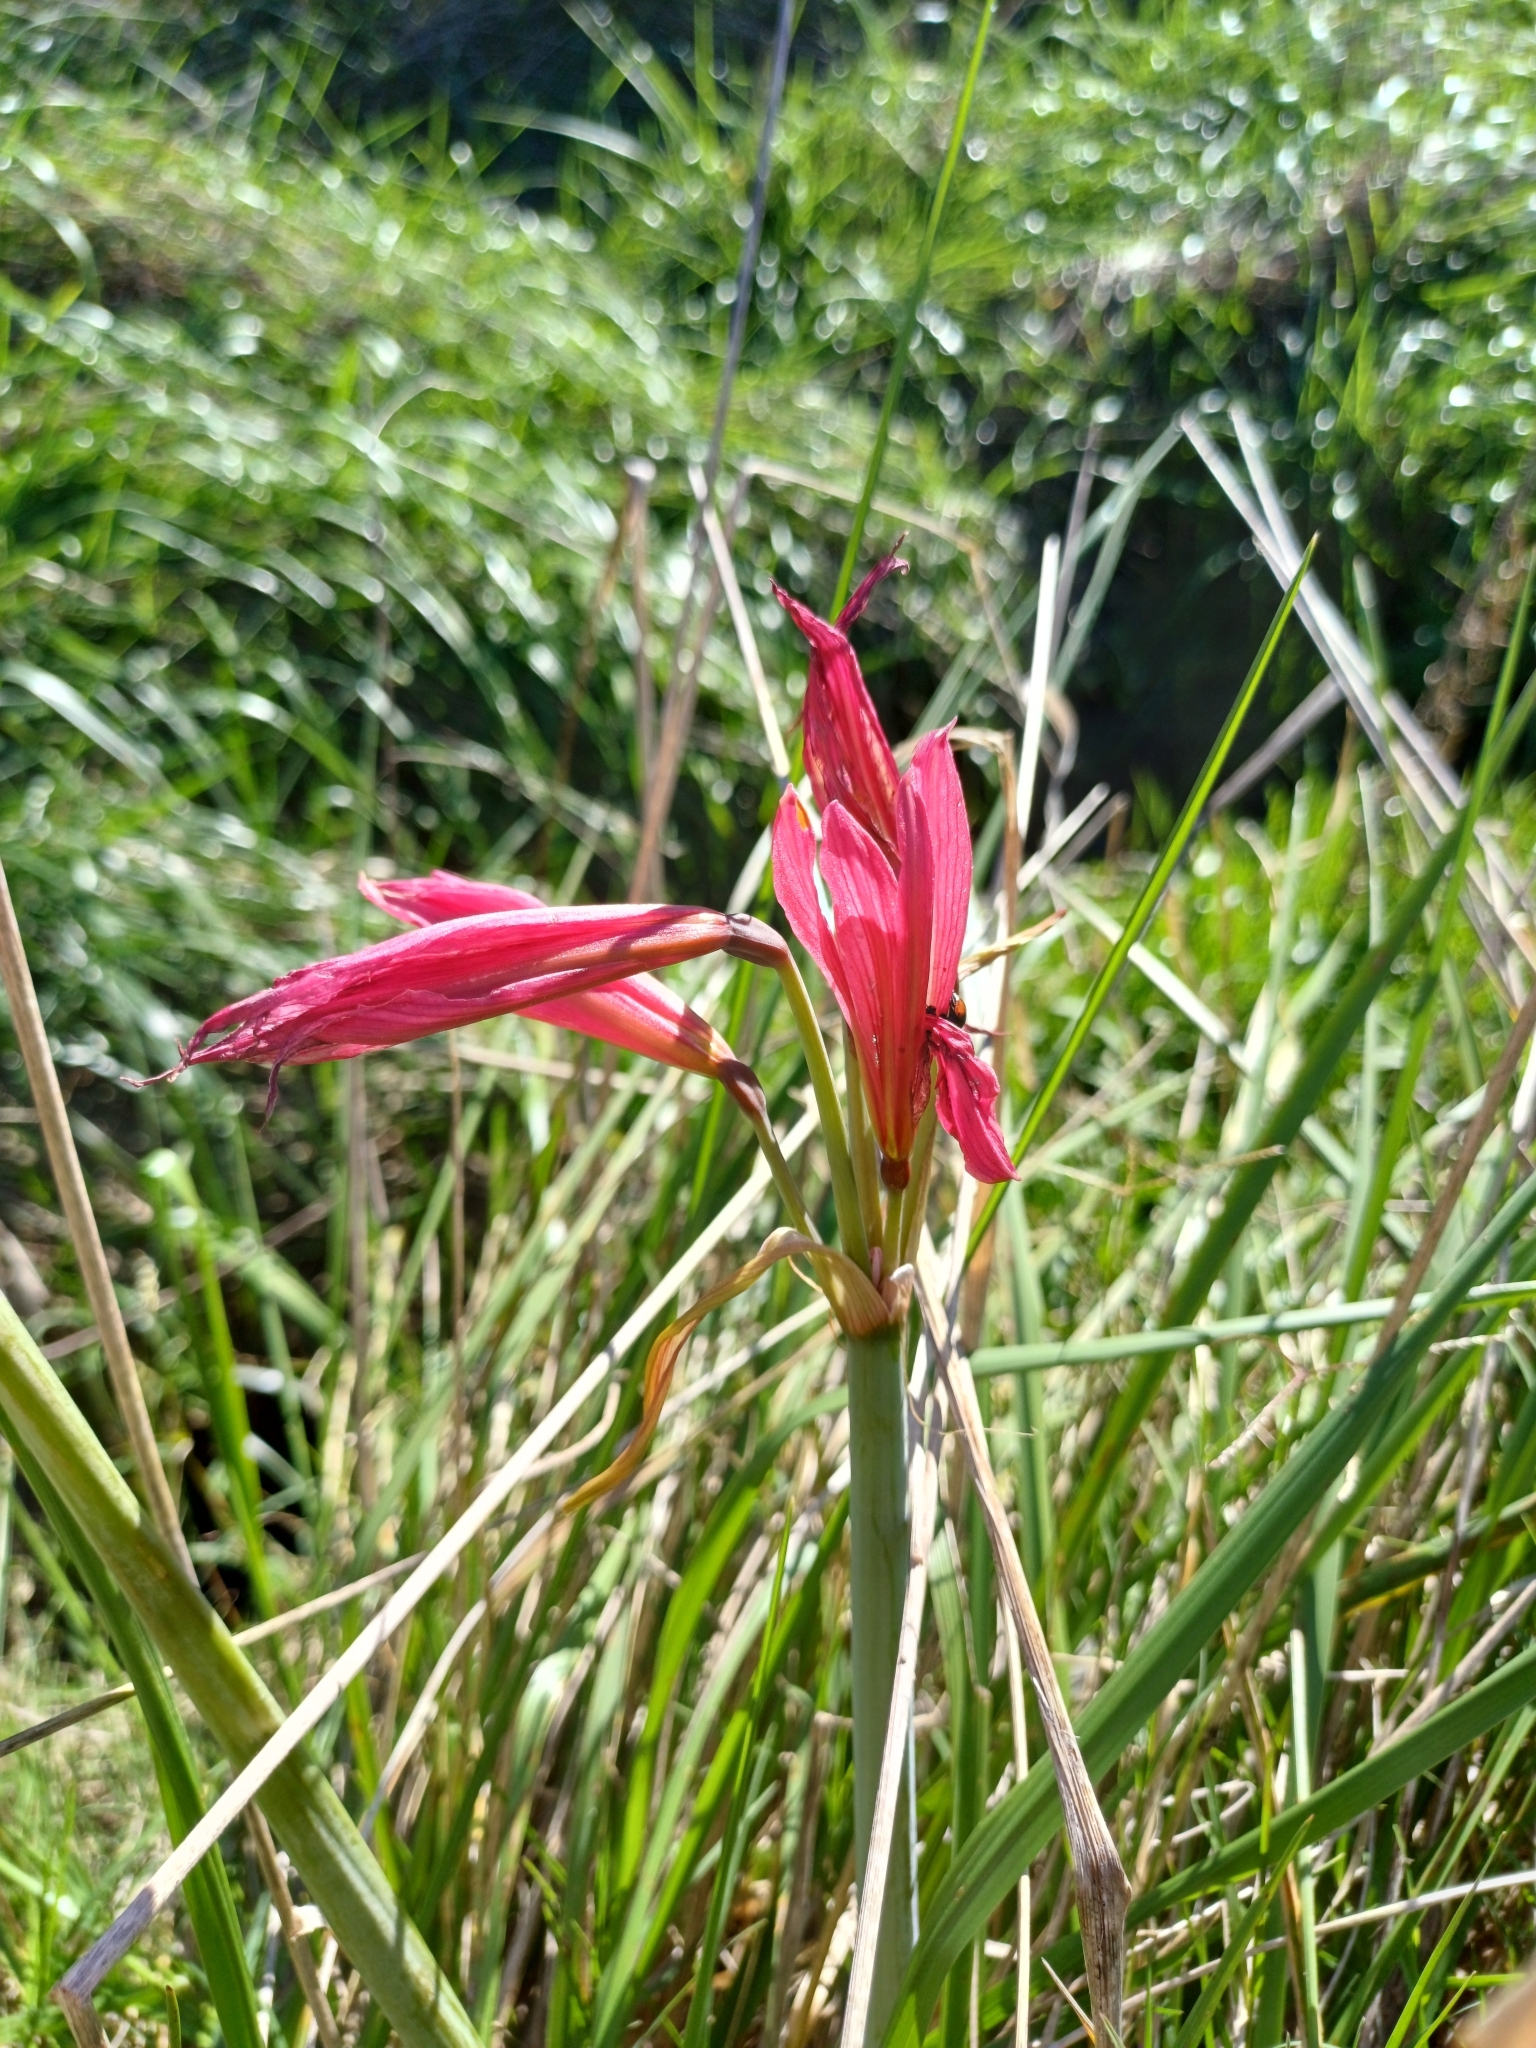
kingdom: Plantae
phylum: Tracheophyta
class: Liliopsida
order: Asparagales
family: Amaryllidaceae
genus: Zephyranthes
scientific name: Zephyranthes bifida
